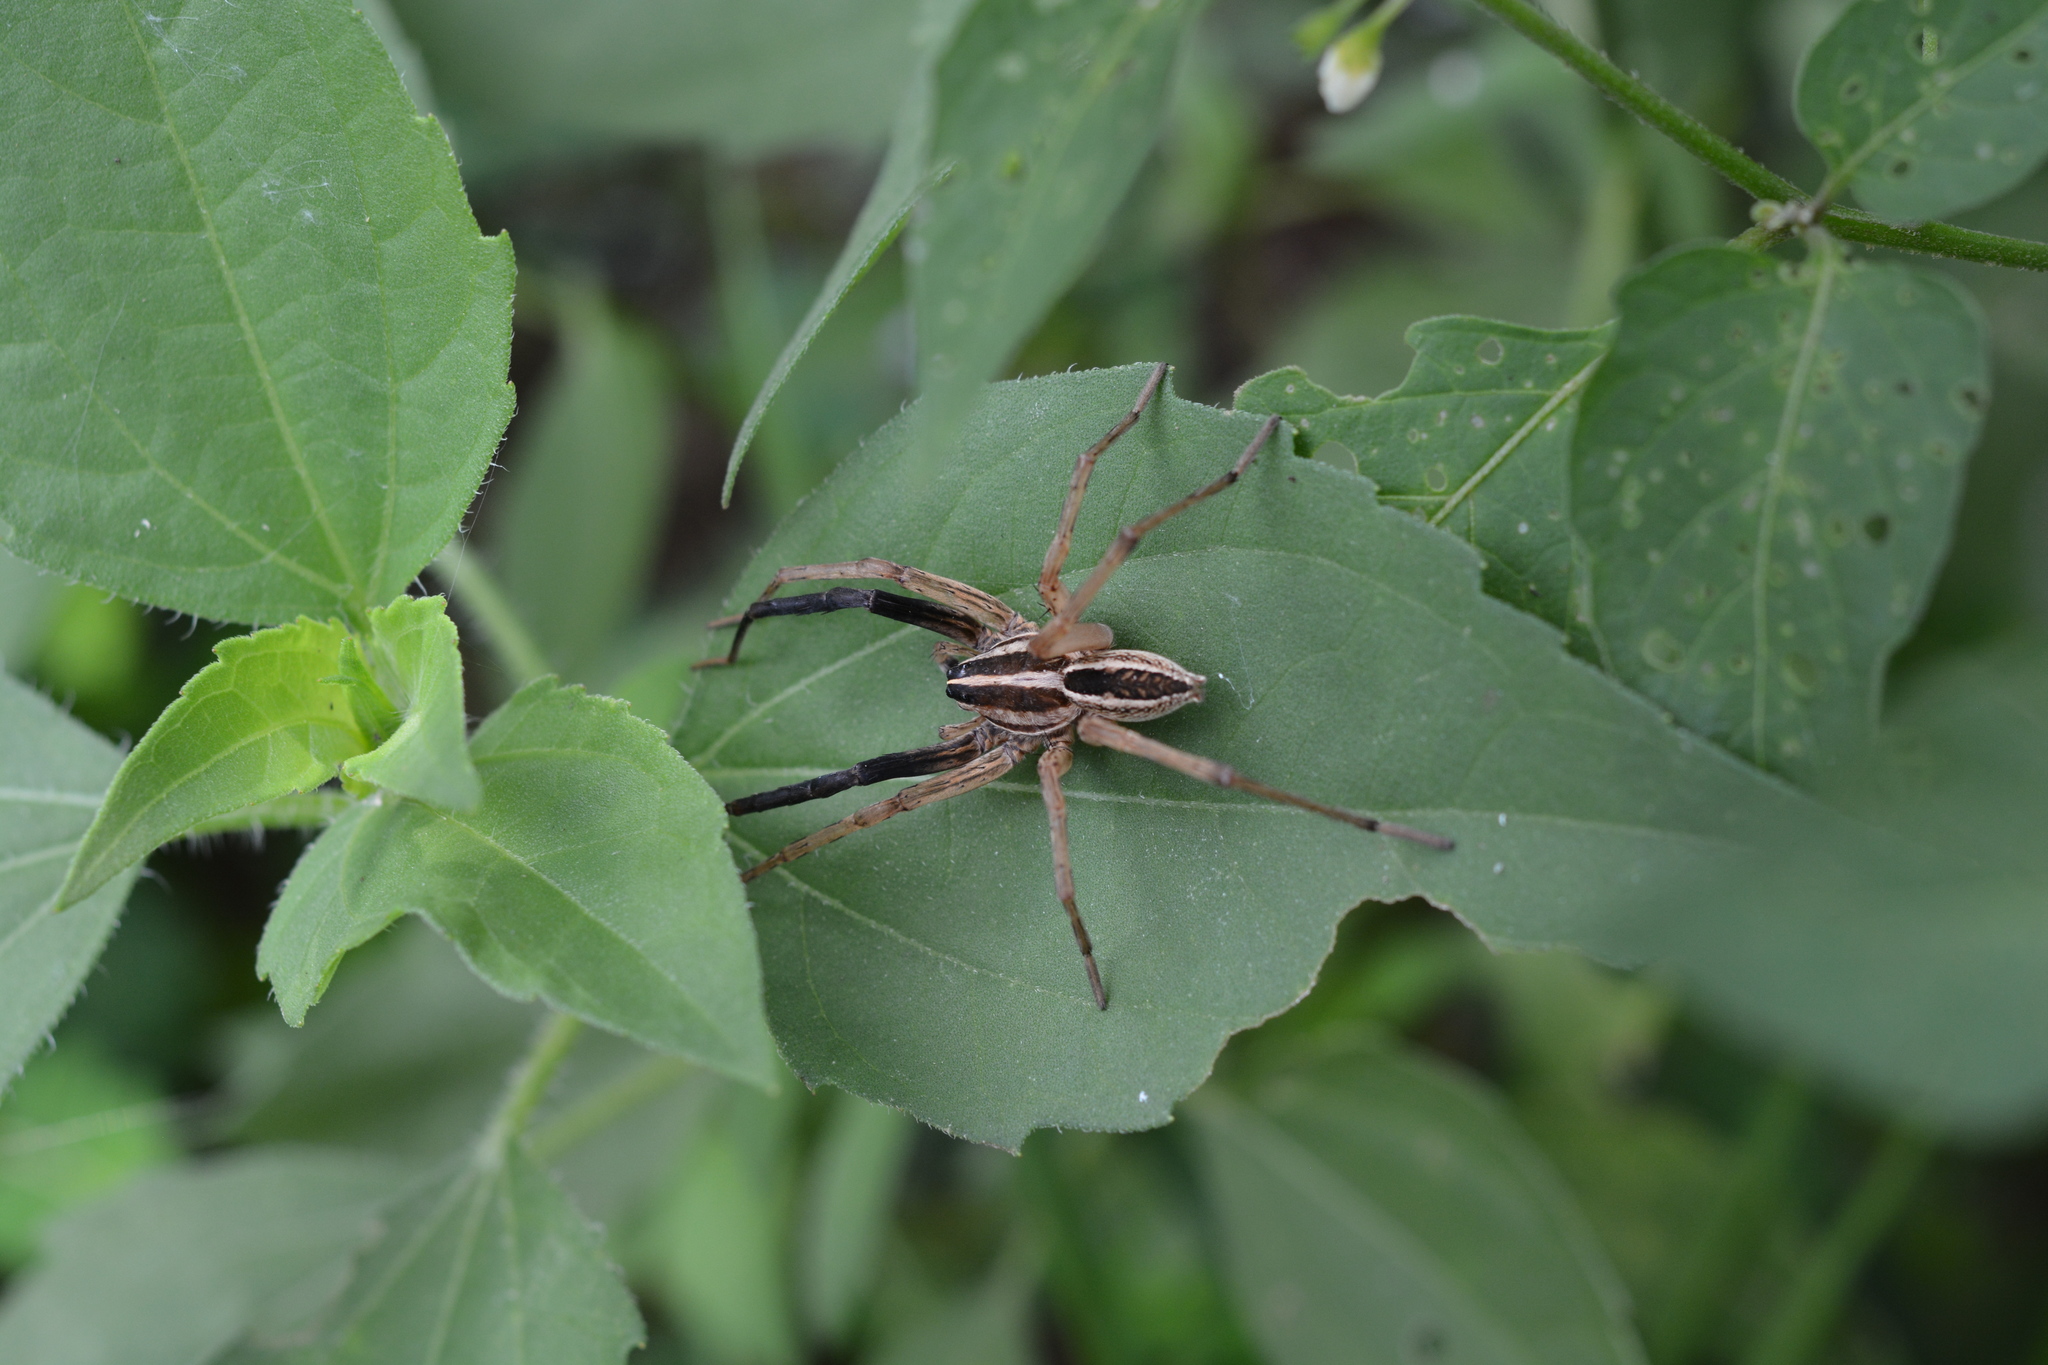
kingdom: Animalia
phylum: Arthropoda
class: Arachnida
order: Araneae
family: Lycosidae
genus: Rabidosa
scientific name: Rabidosa rabida
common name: Rabid wolf spider
